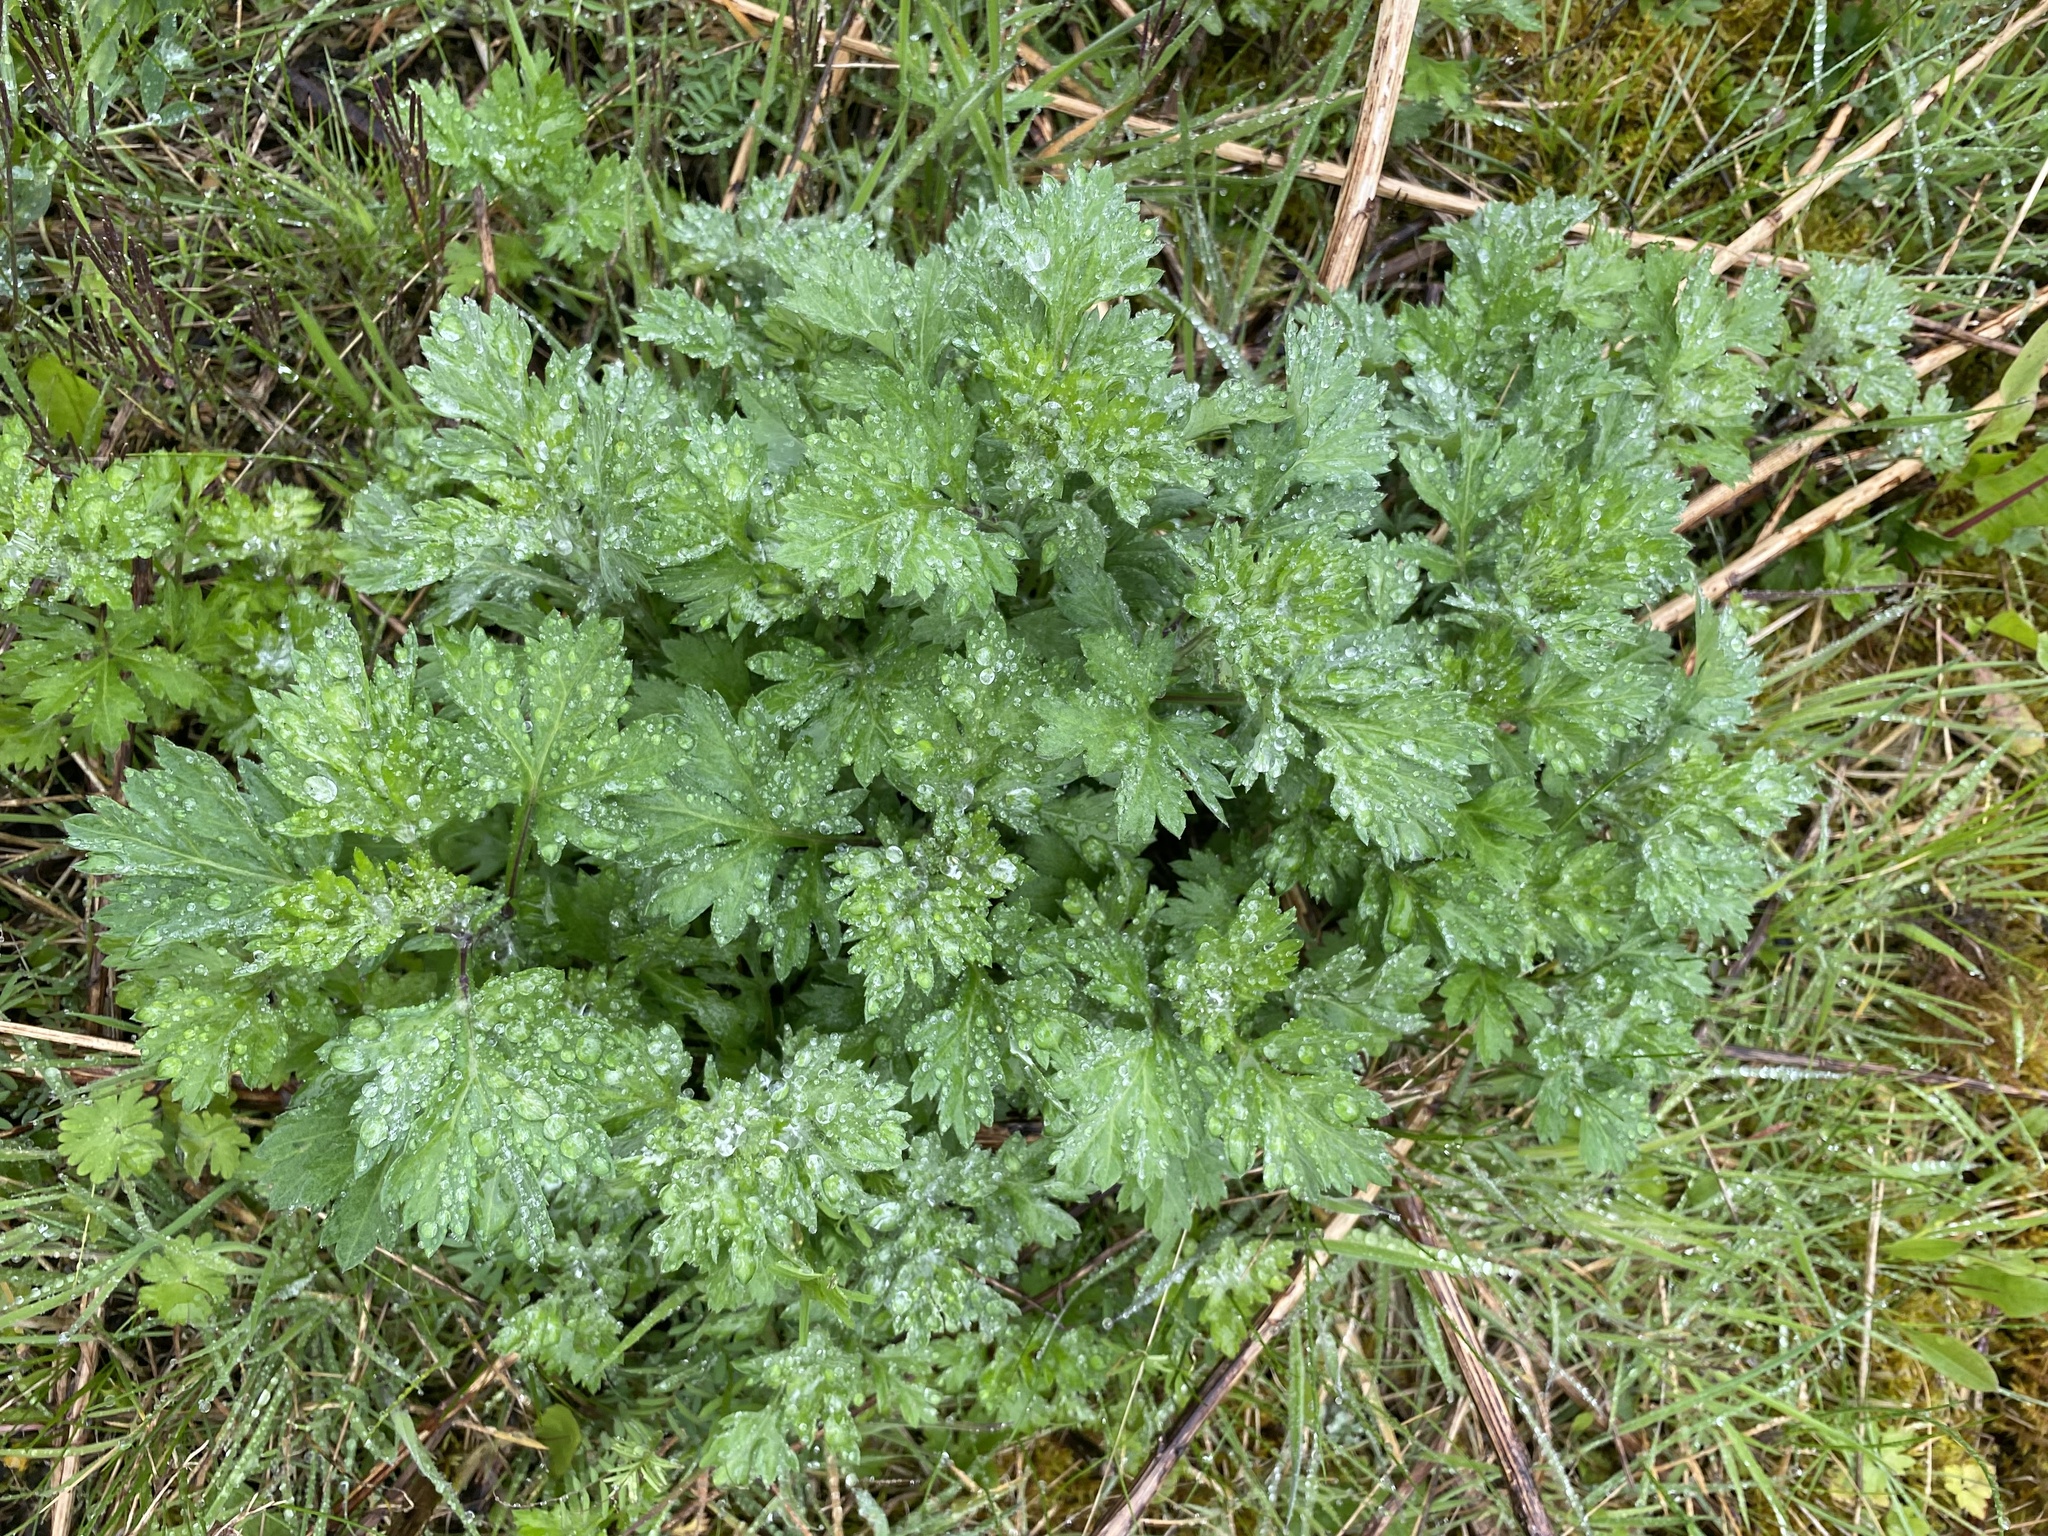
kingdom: Plantae
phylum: Tracheophyta
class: Magnoliopsida
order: Asterales
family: Asteraceae
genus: Artemisia
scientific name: Artemisia vulgaris
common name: Mugwort
